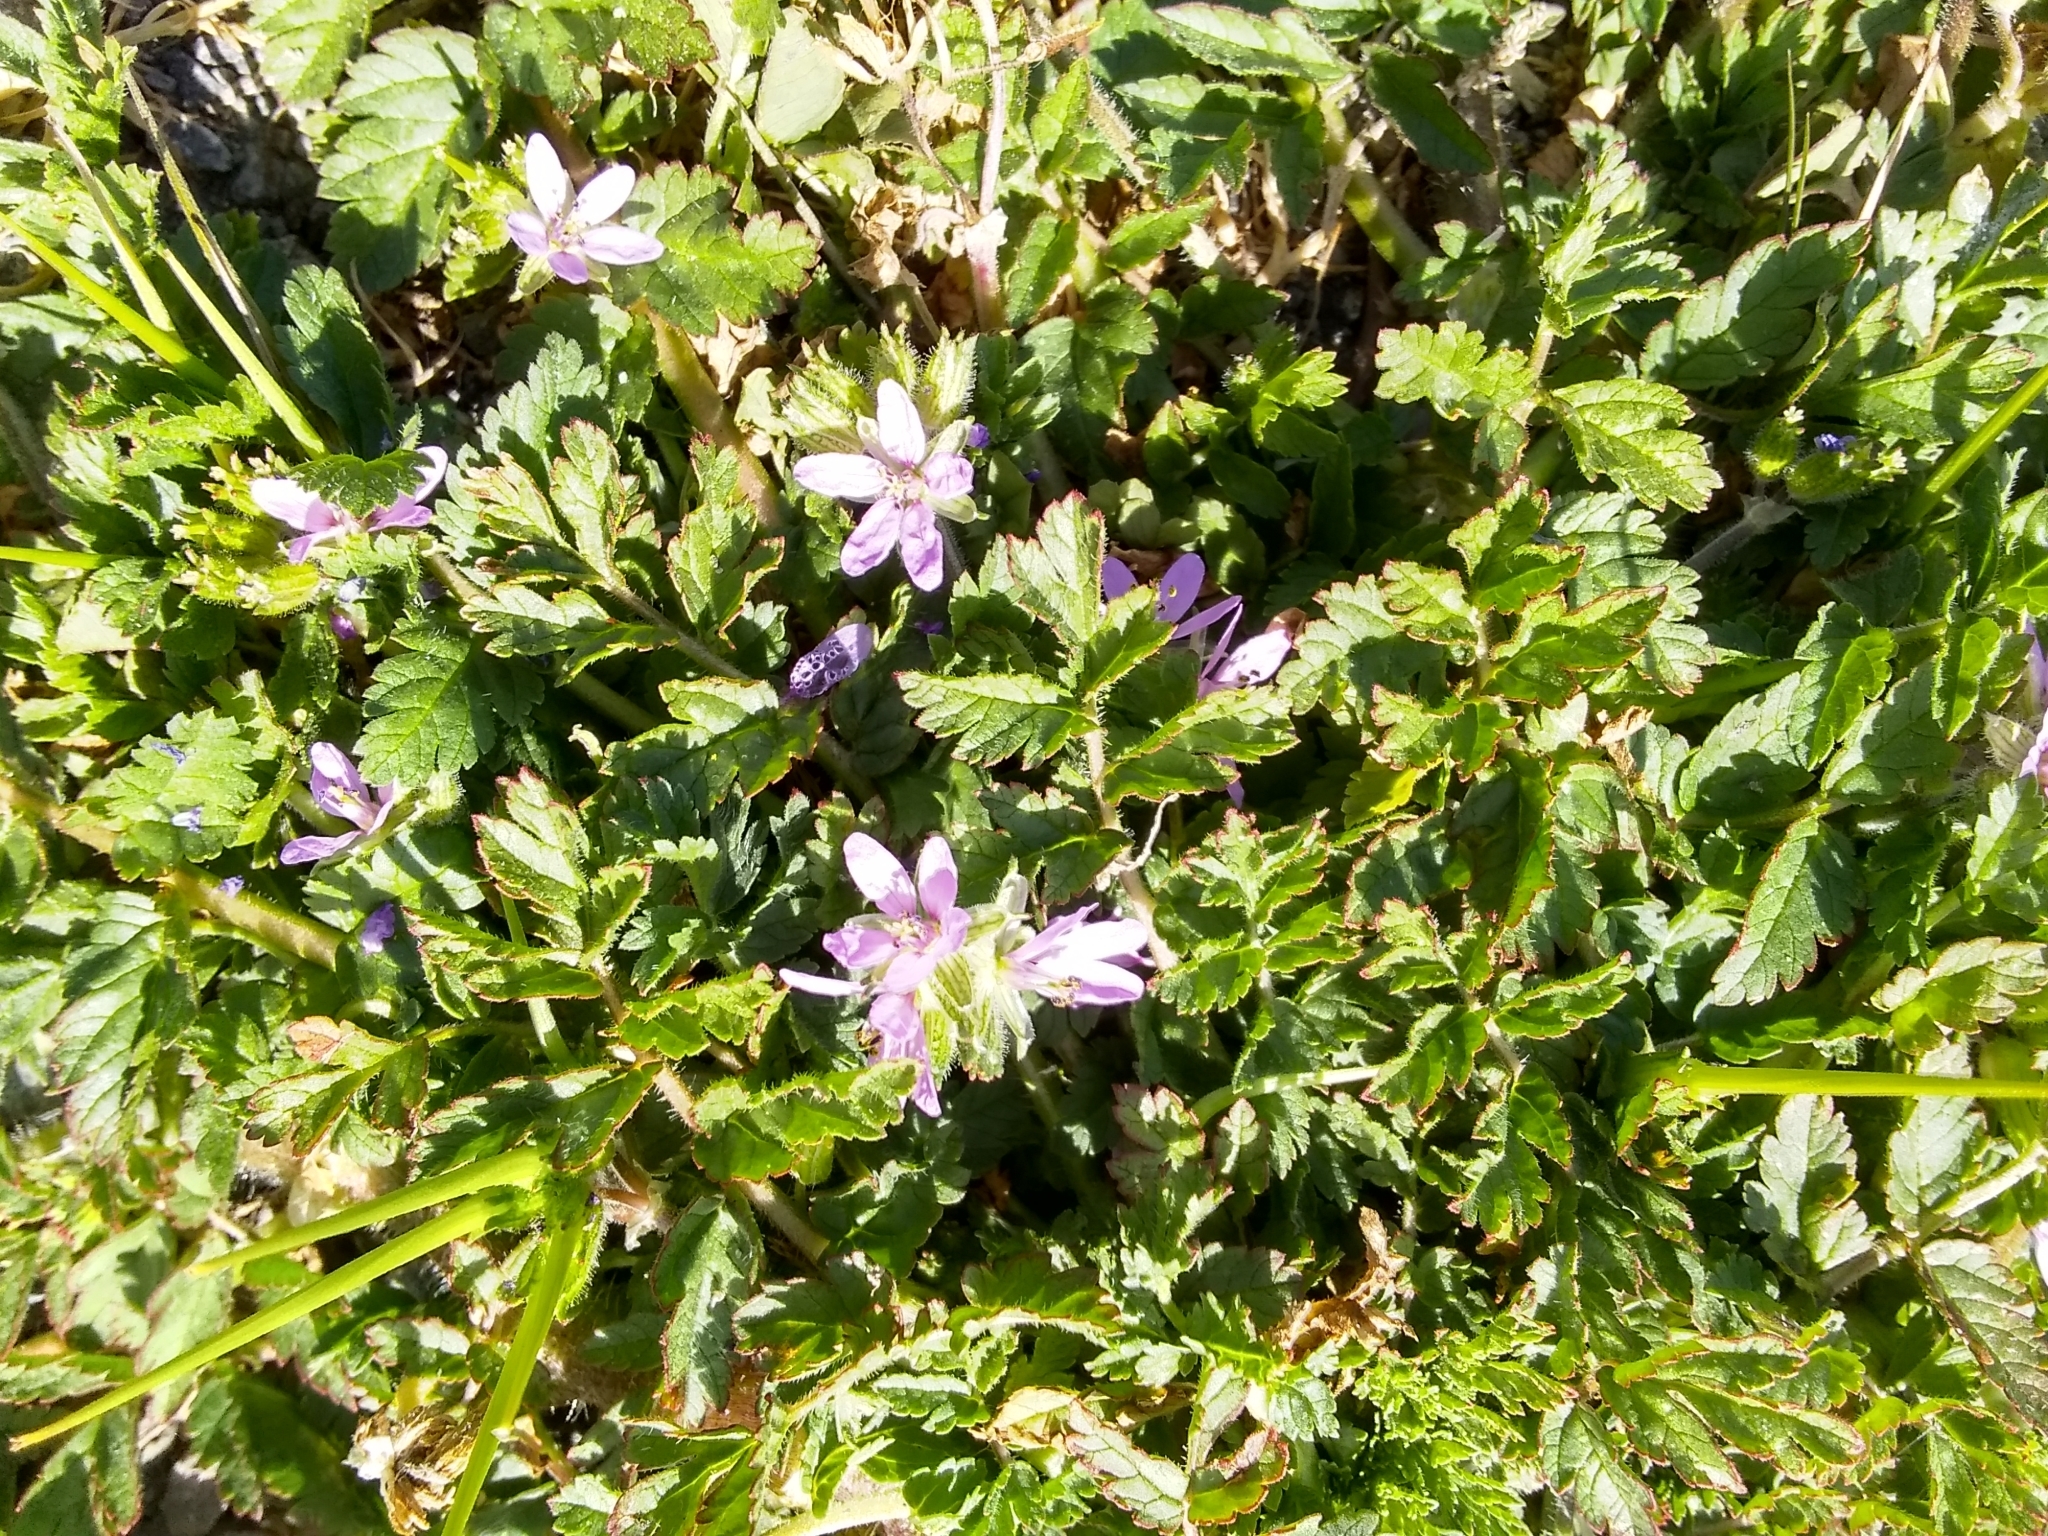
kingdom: Plantae
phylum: Tracheophyta
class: Magnoliopsida
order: Geraniales
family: Geraniaceae
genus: Erodium
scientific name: Erodium moschatum
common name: Musk stork's-bill
